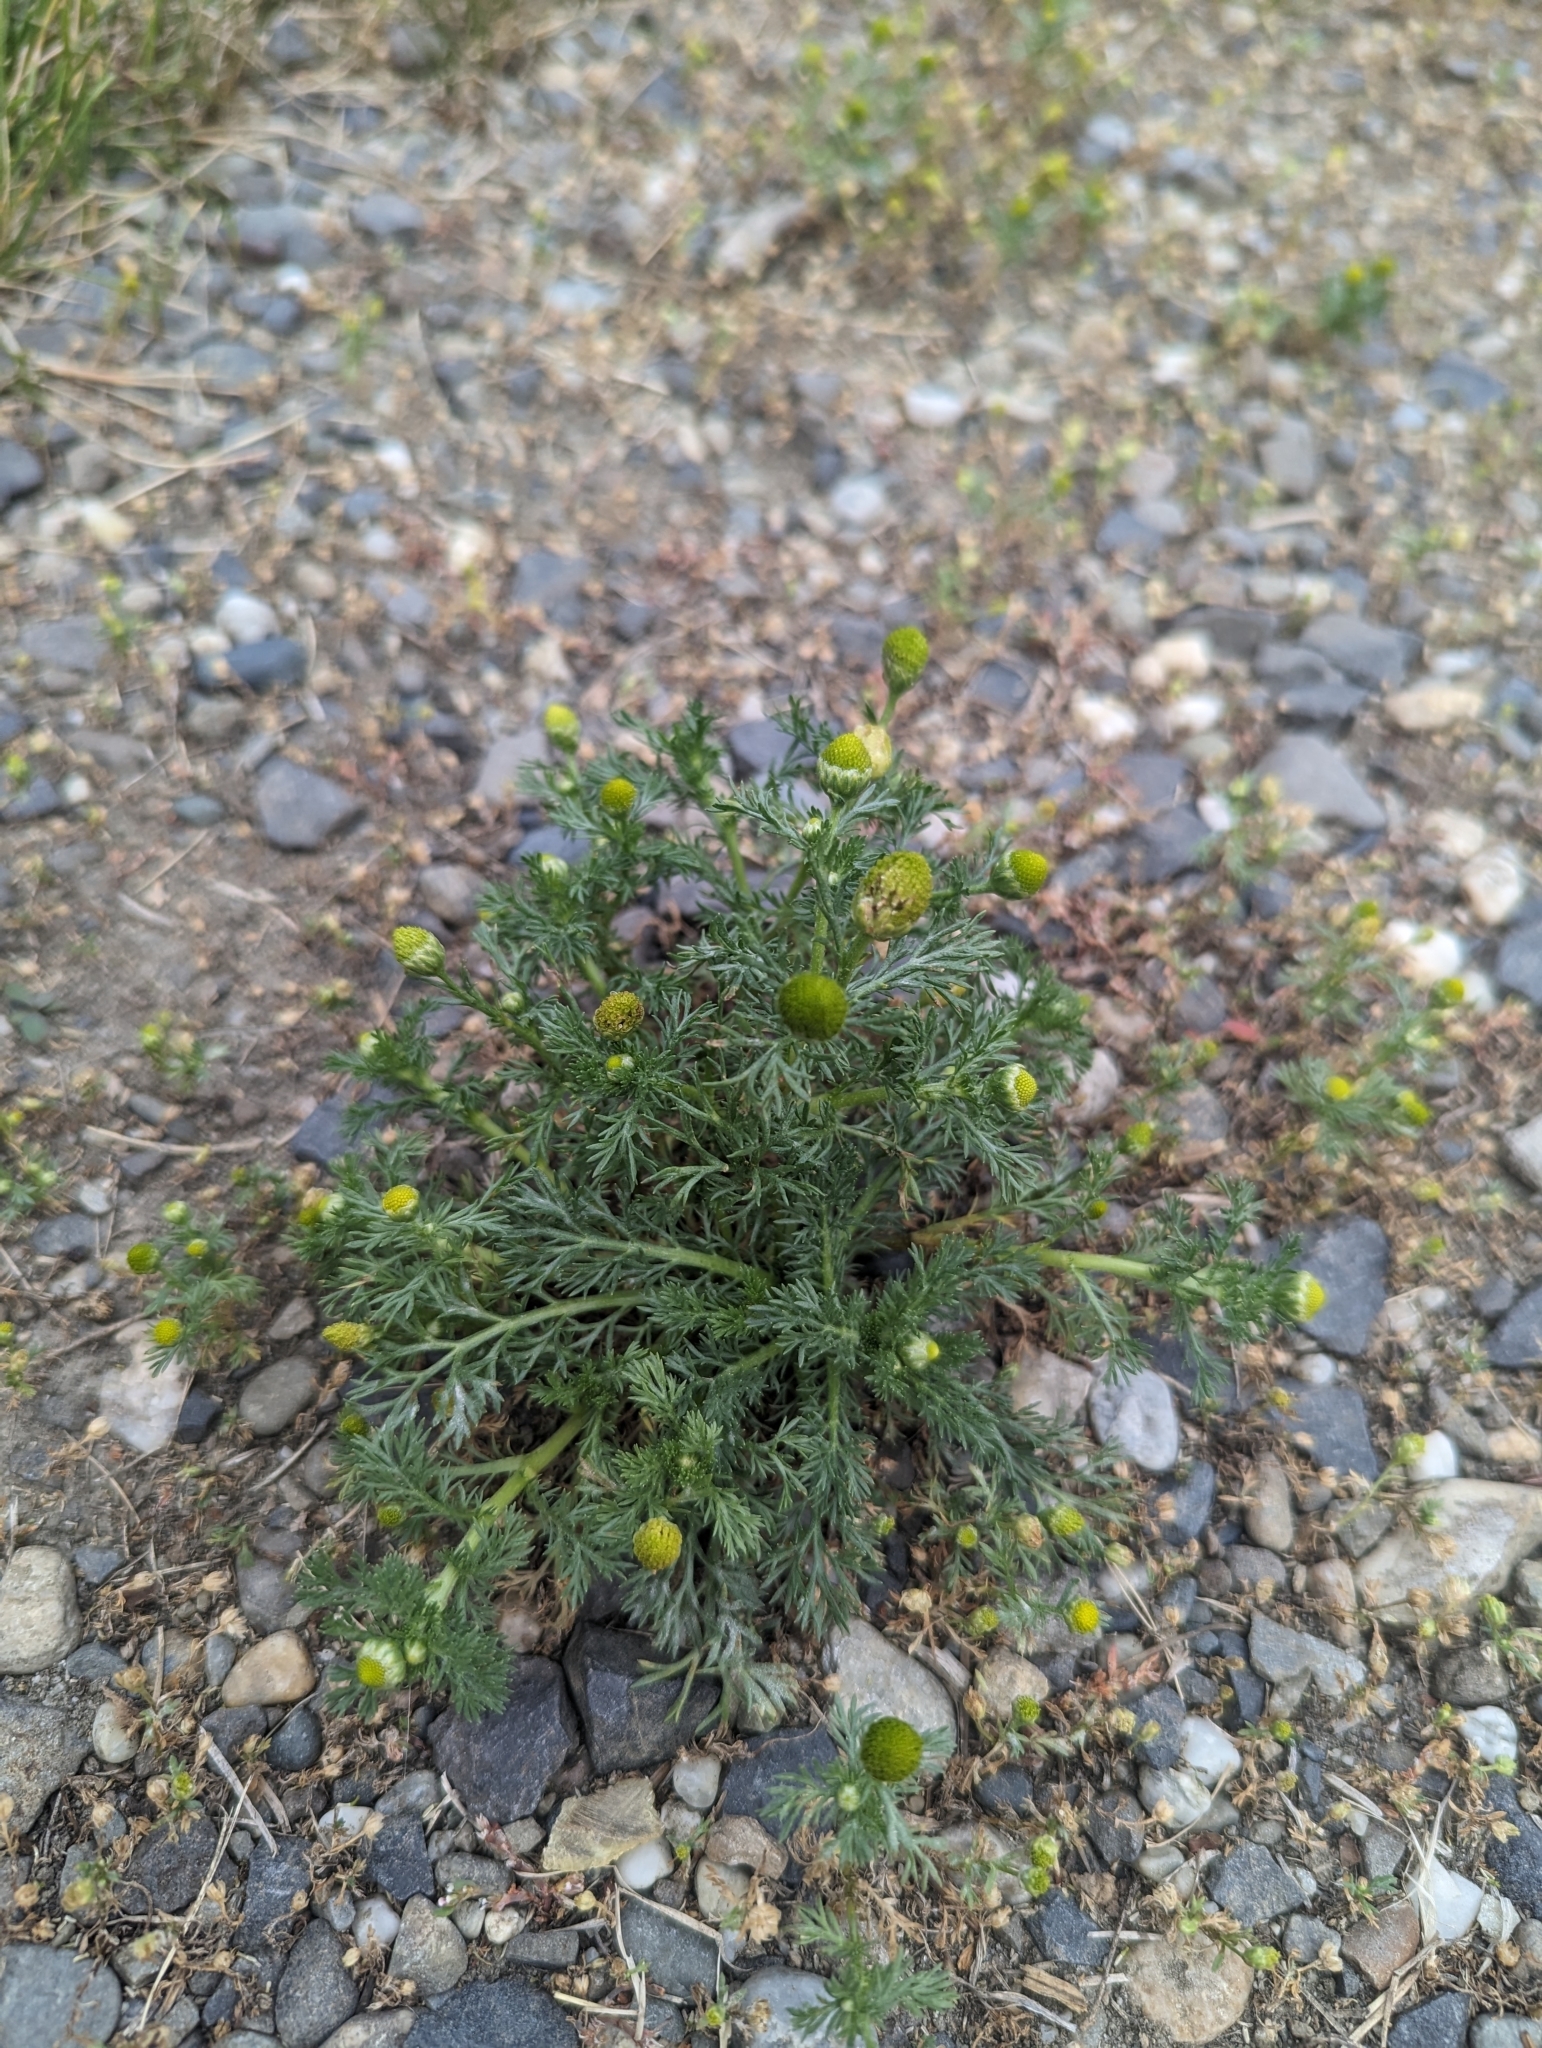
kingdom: Plantae
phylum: Tracheophyta
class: Magnoliopsida
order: Asterales
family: Asteraceae
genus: Matricaria
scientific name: Matricaria discoidea
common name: Disc mayweed
